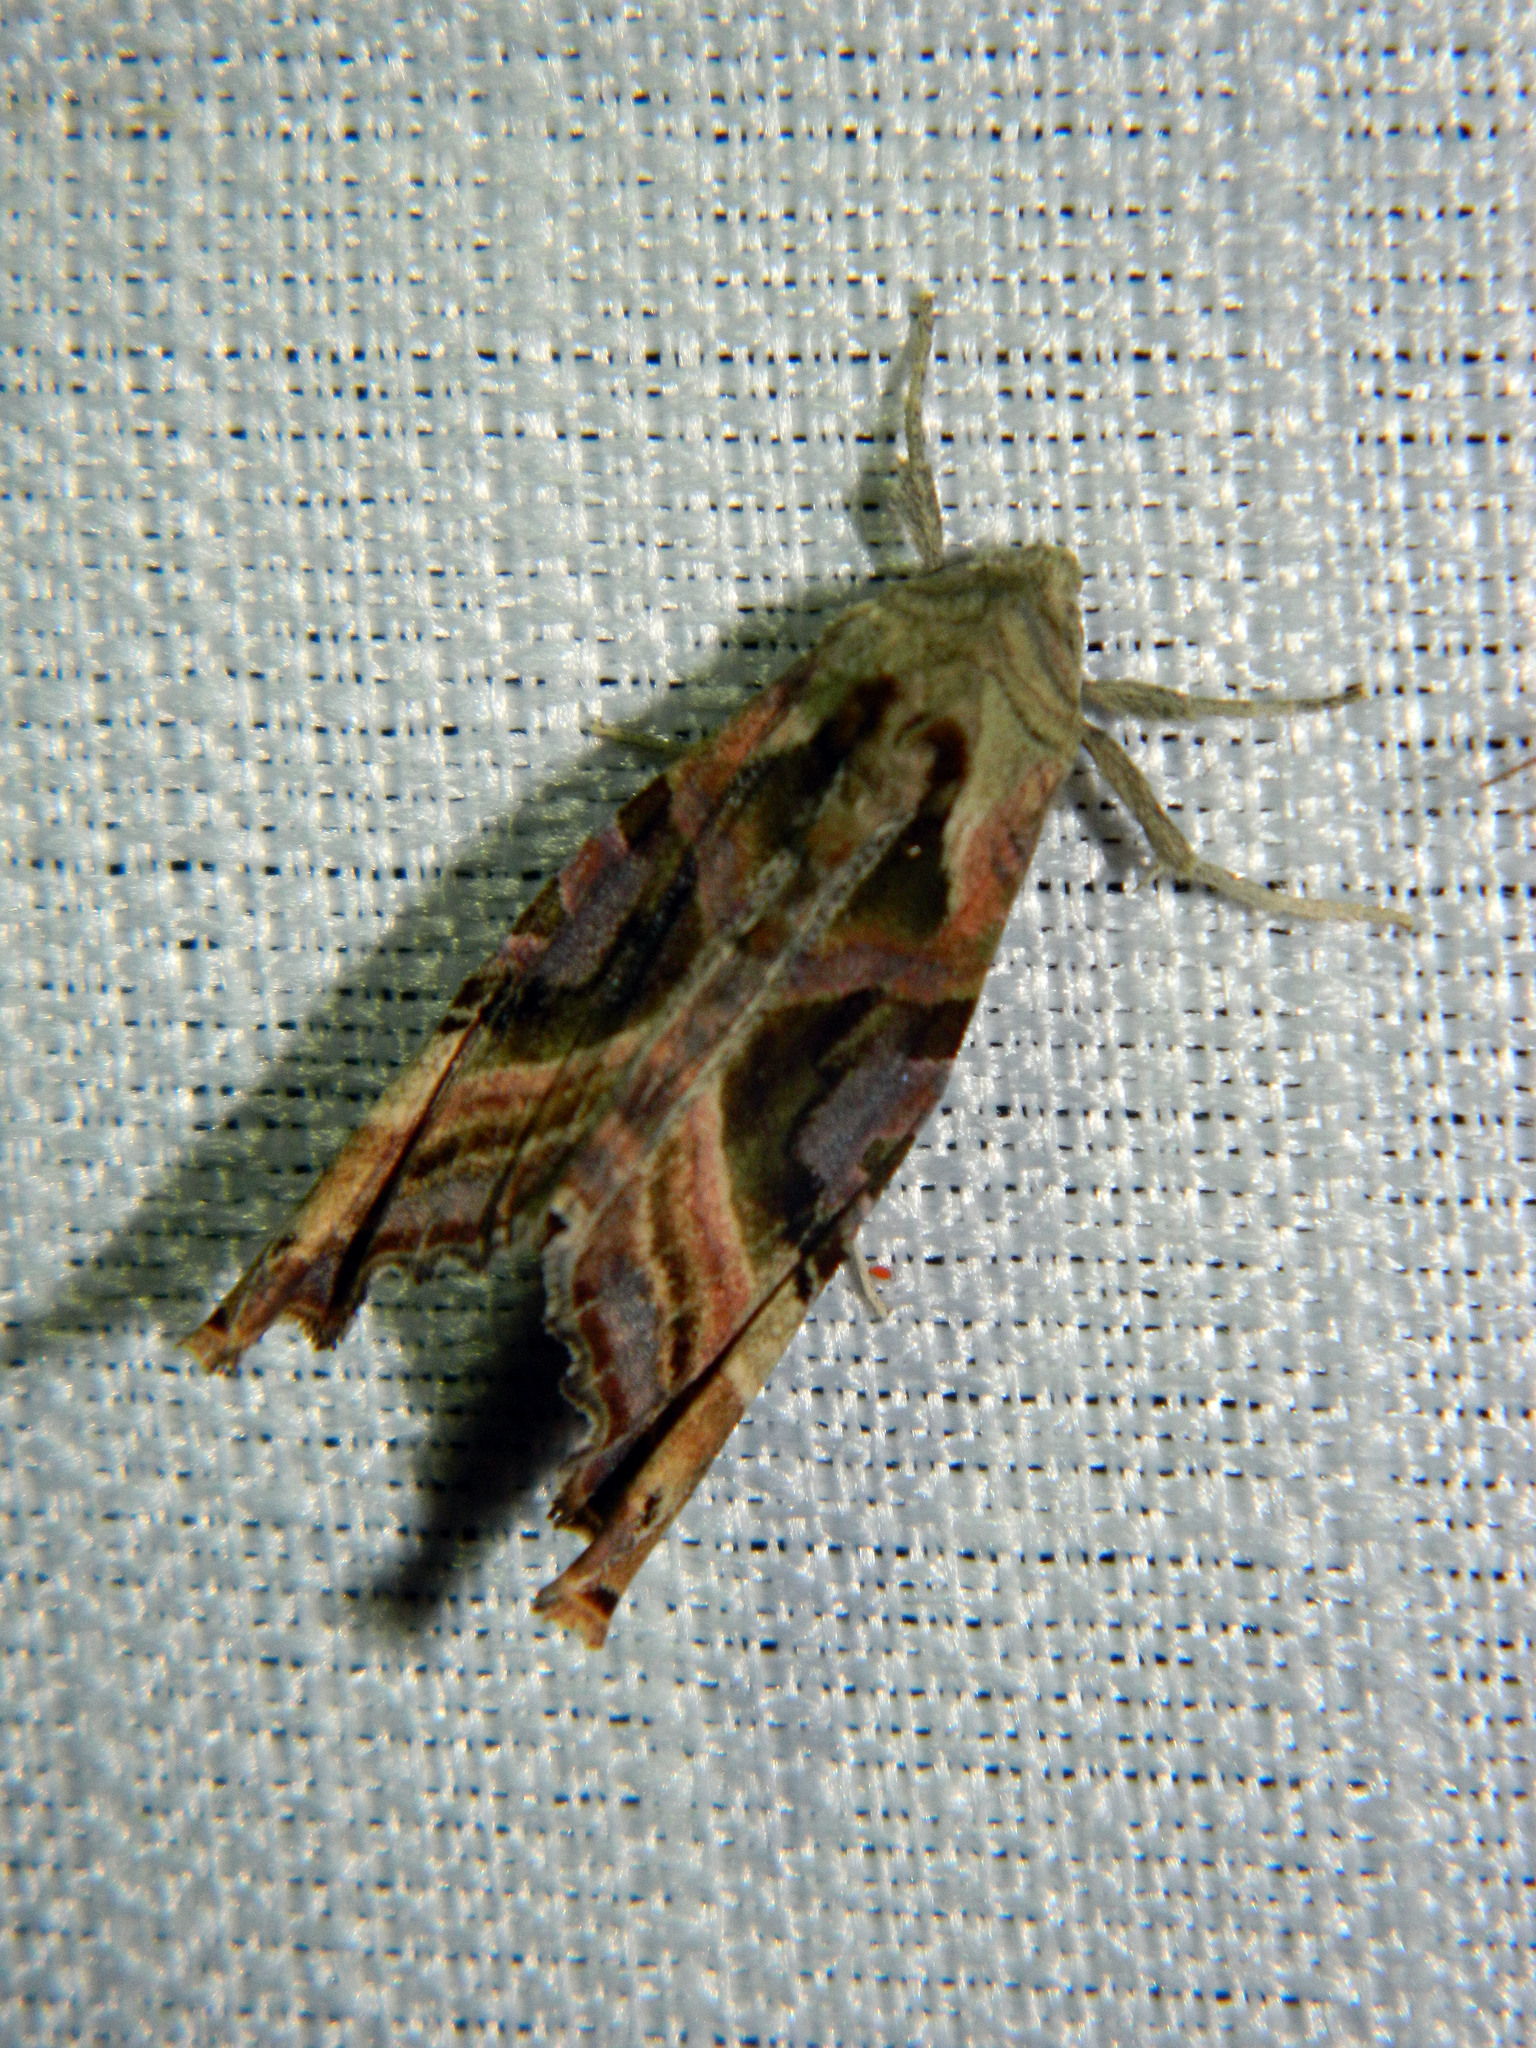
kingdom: Animalia
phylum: Arthropoda
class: Insecta
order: Lepidoptera
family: Noctuidae
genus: Phlogophora
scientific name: Phlogophora iris
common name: Olive angle shades
